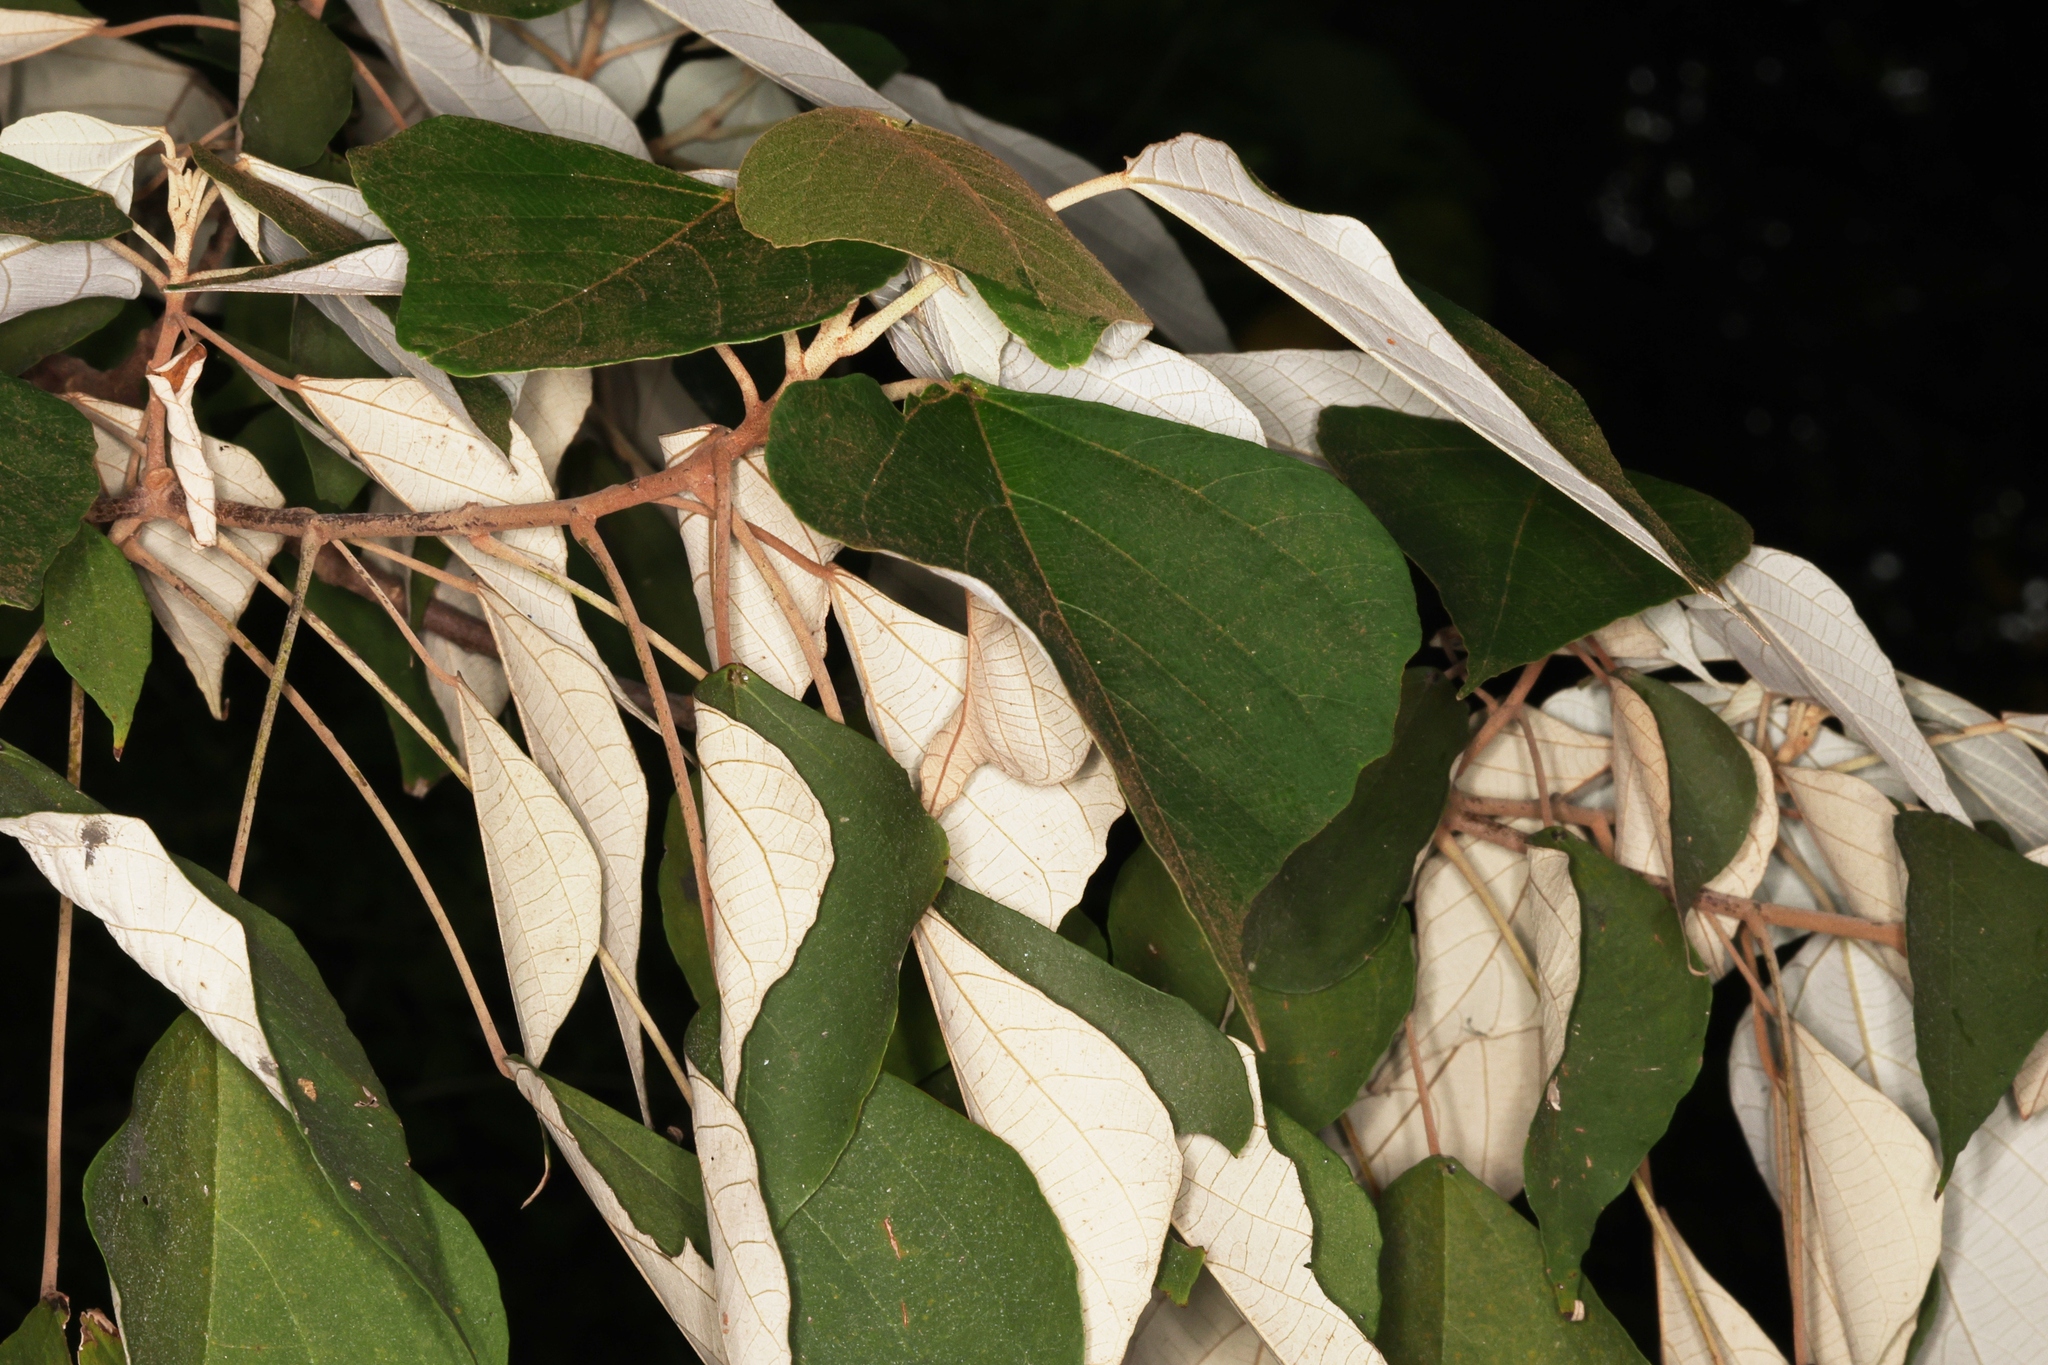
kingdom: Plantae
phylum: Tracheophyta
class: Magnoliopsida
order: Malpighiales
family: Euphorbiaceae
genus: Mallotus
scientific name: Mallotus paniculatus
